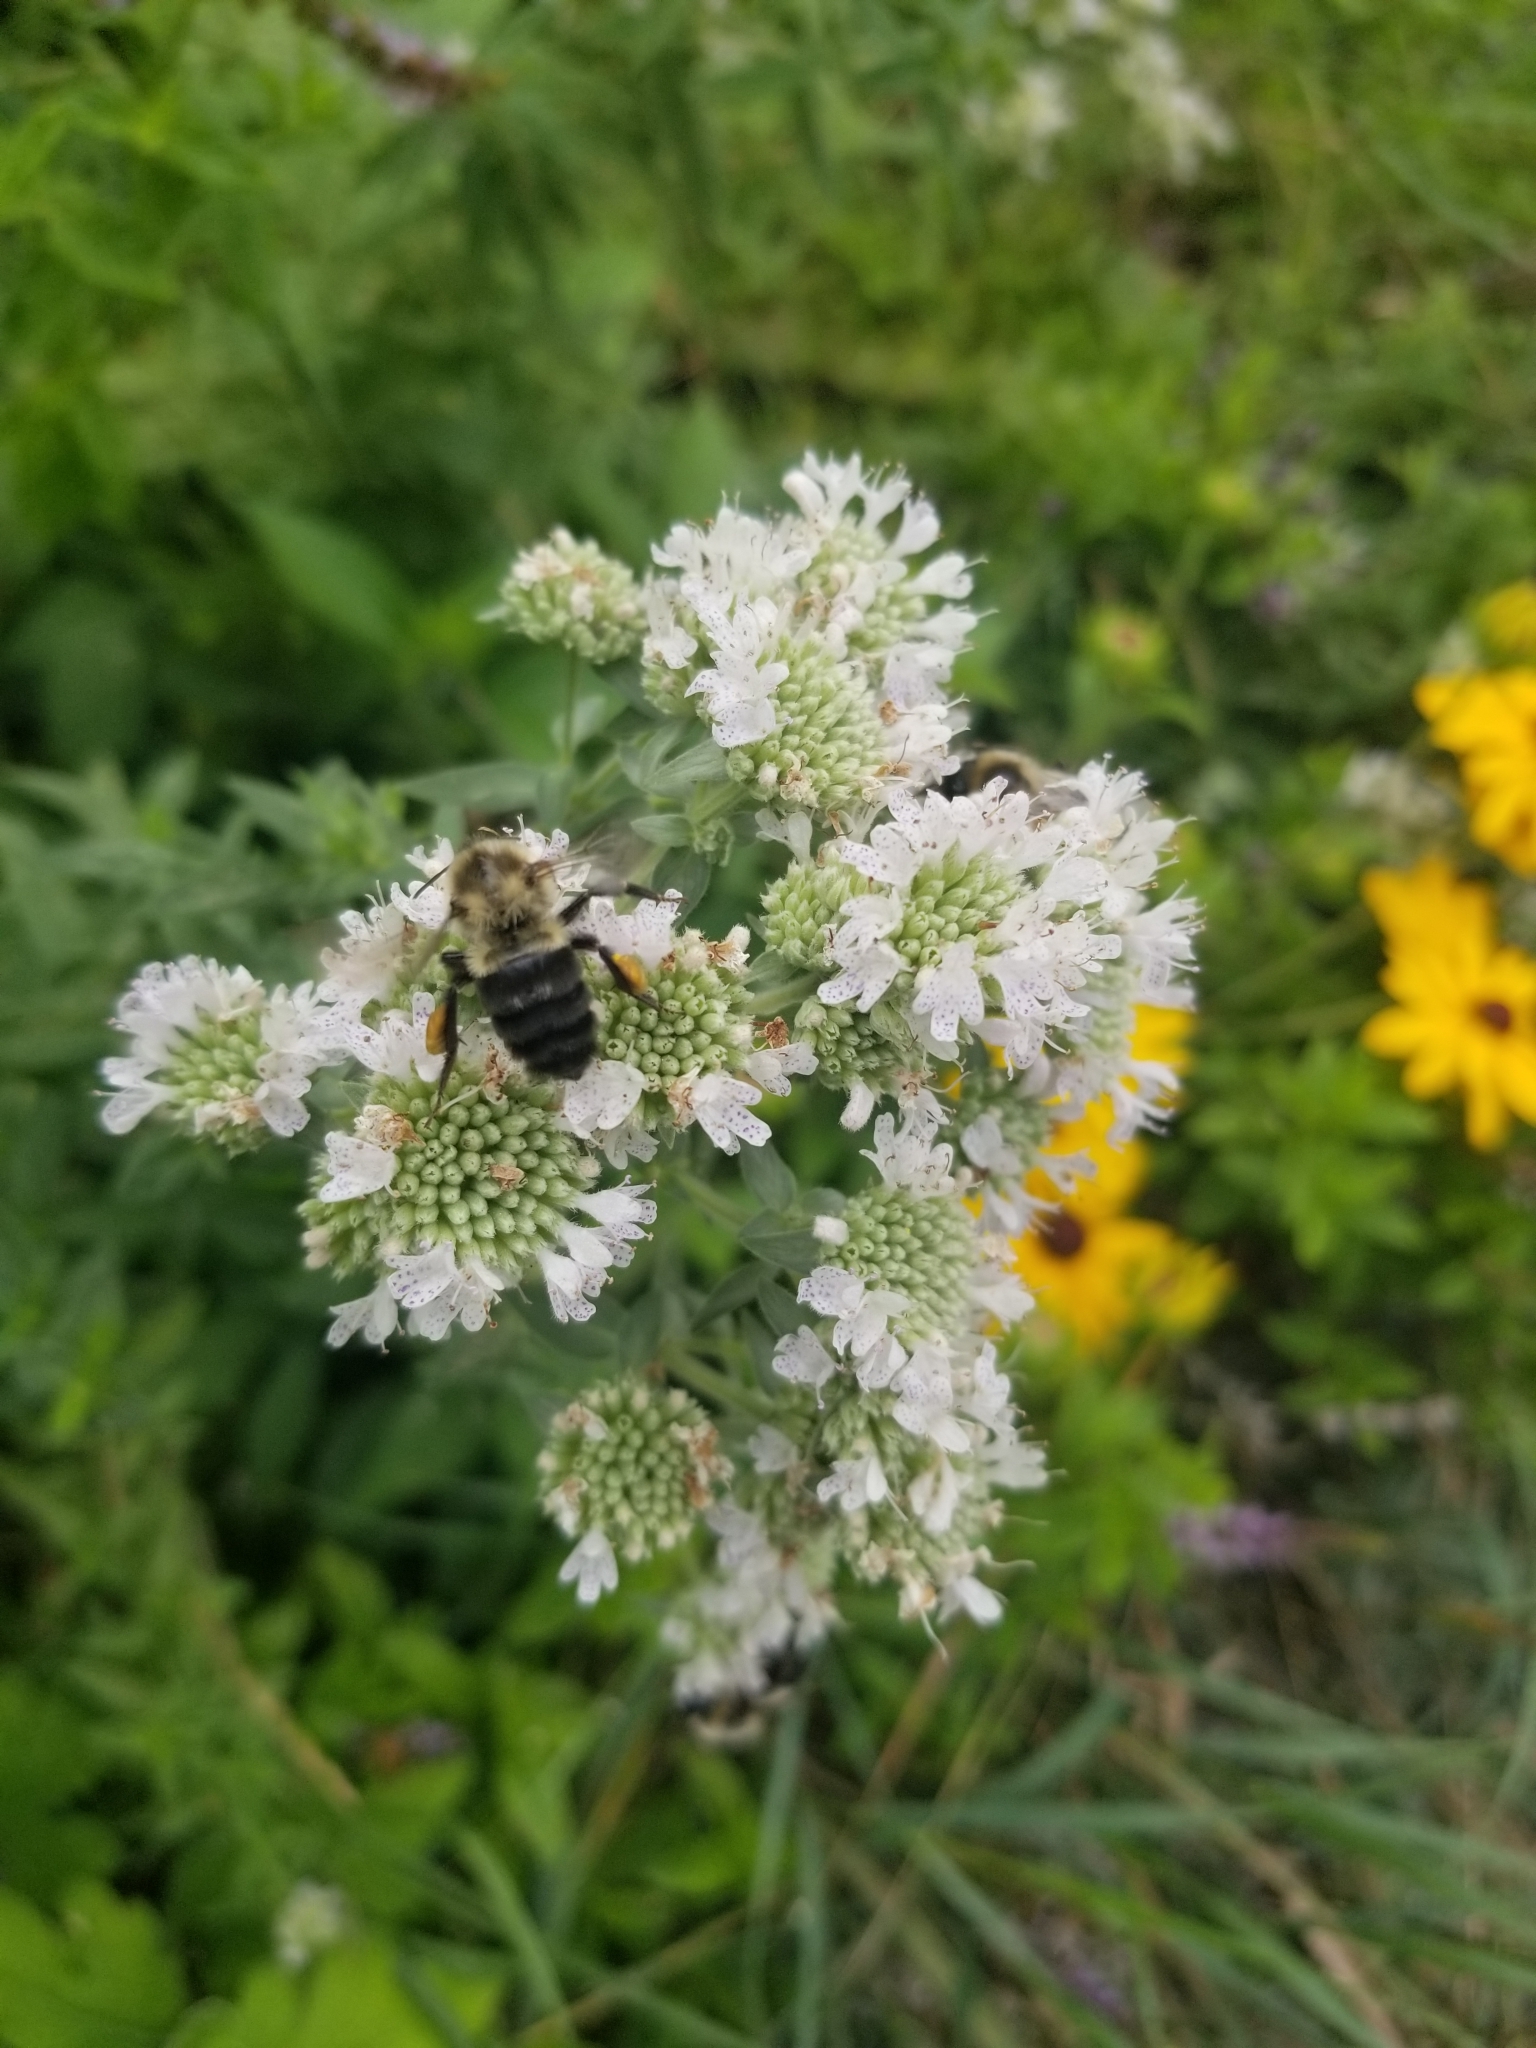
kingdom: Animalia
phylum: Arthropoda
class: Insecta
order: Hymenoptera
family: Apidae
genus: Bombus
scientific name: Bombus impatiens
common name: Common eastern bumble bee
